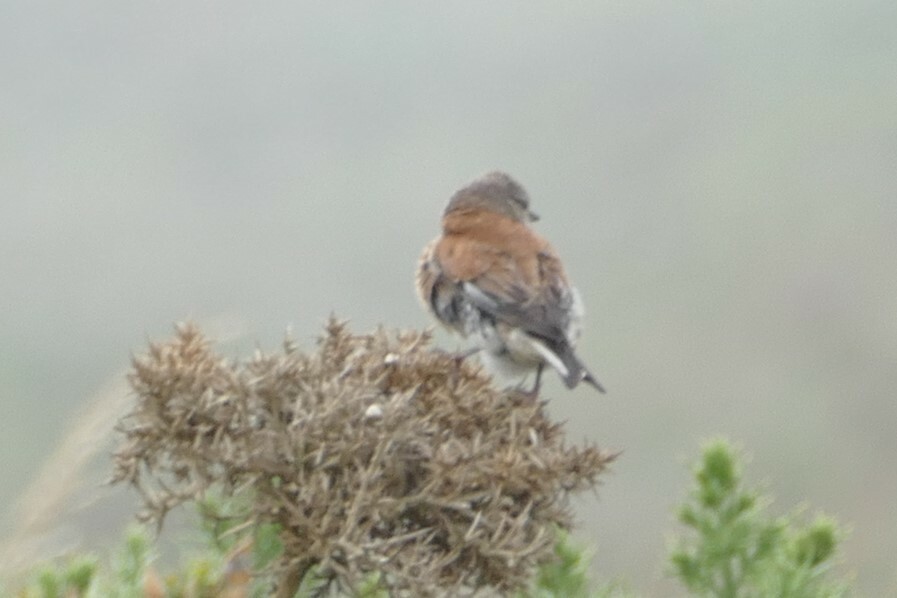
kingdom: Animalia
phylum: Chordata
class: Aves
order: Passeriformes
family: Fringillidae
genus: Linaria
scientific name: Linaria cannabina
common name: Common linnet
